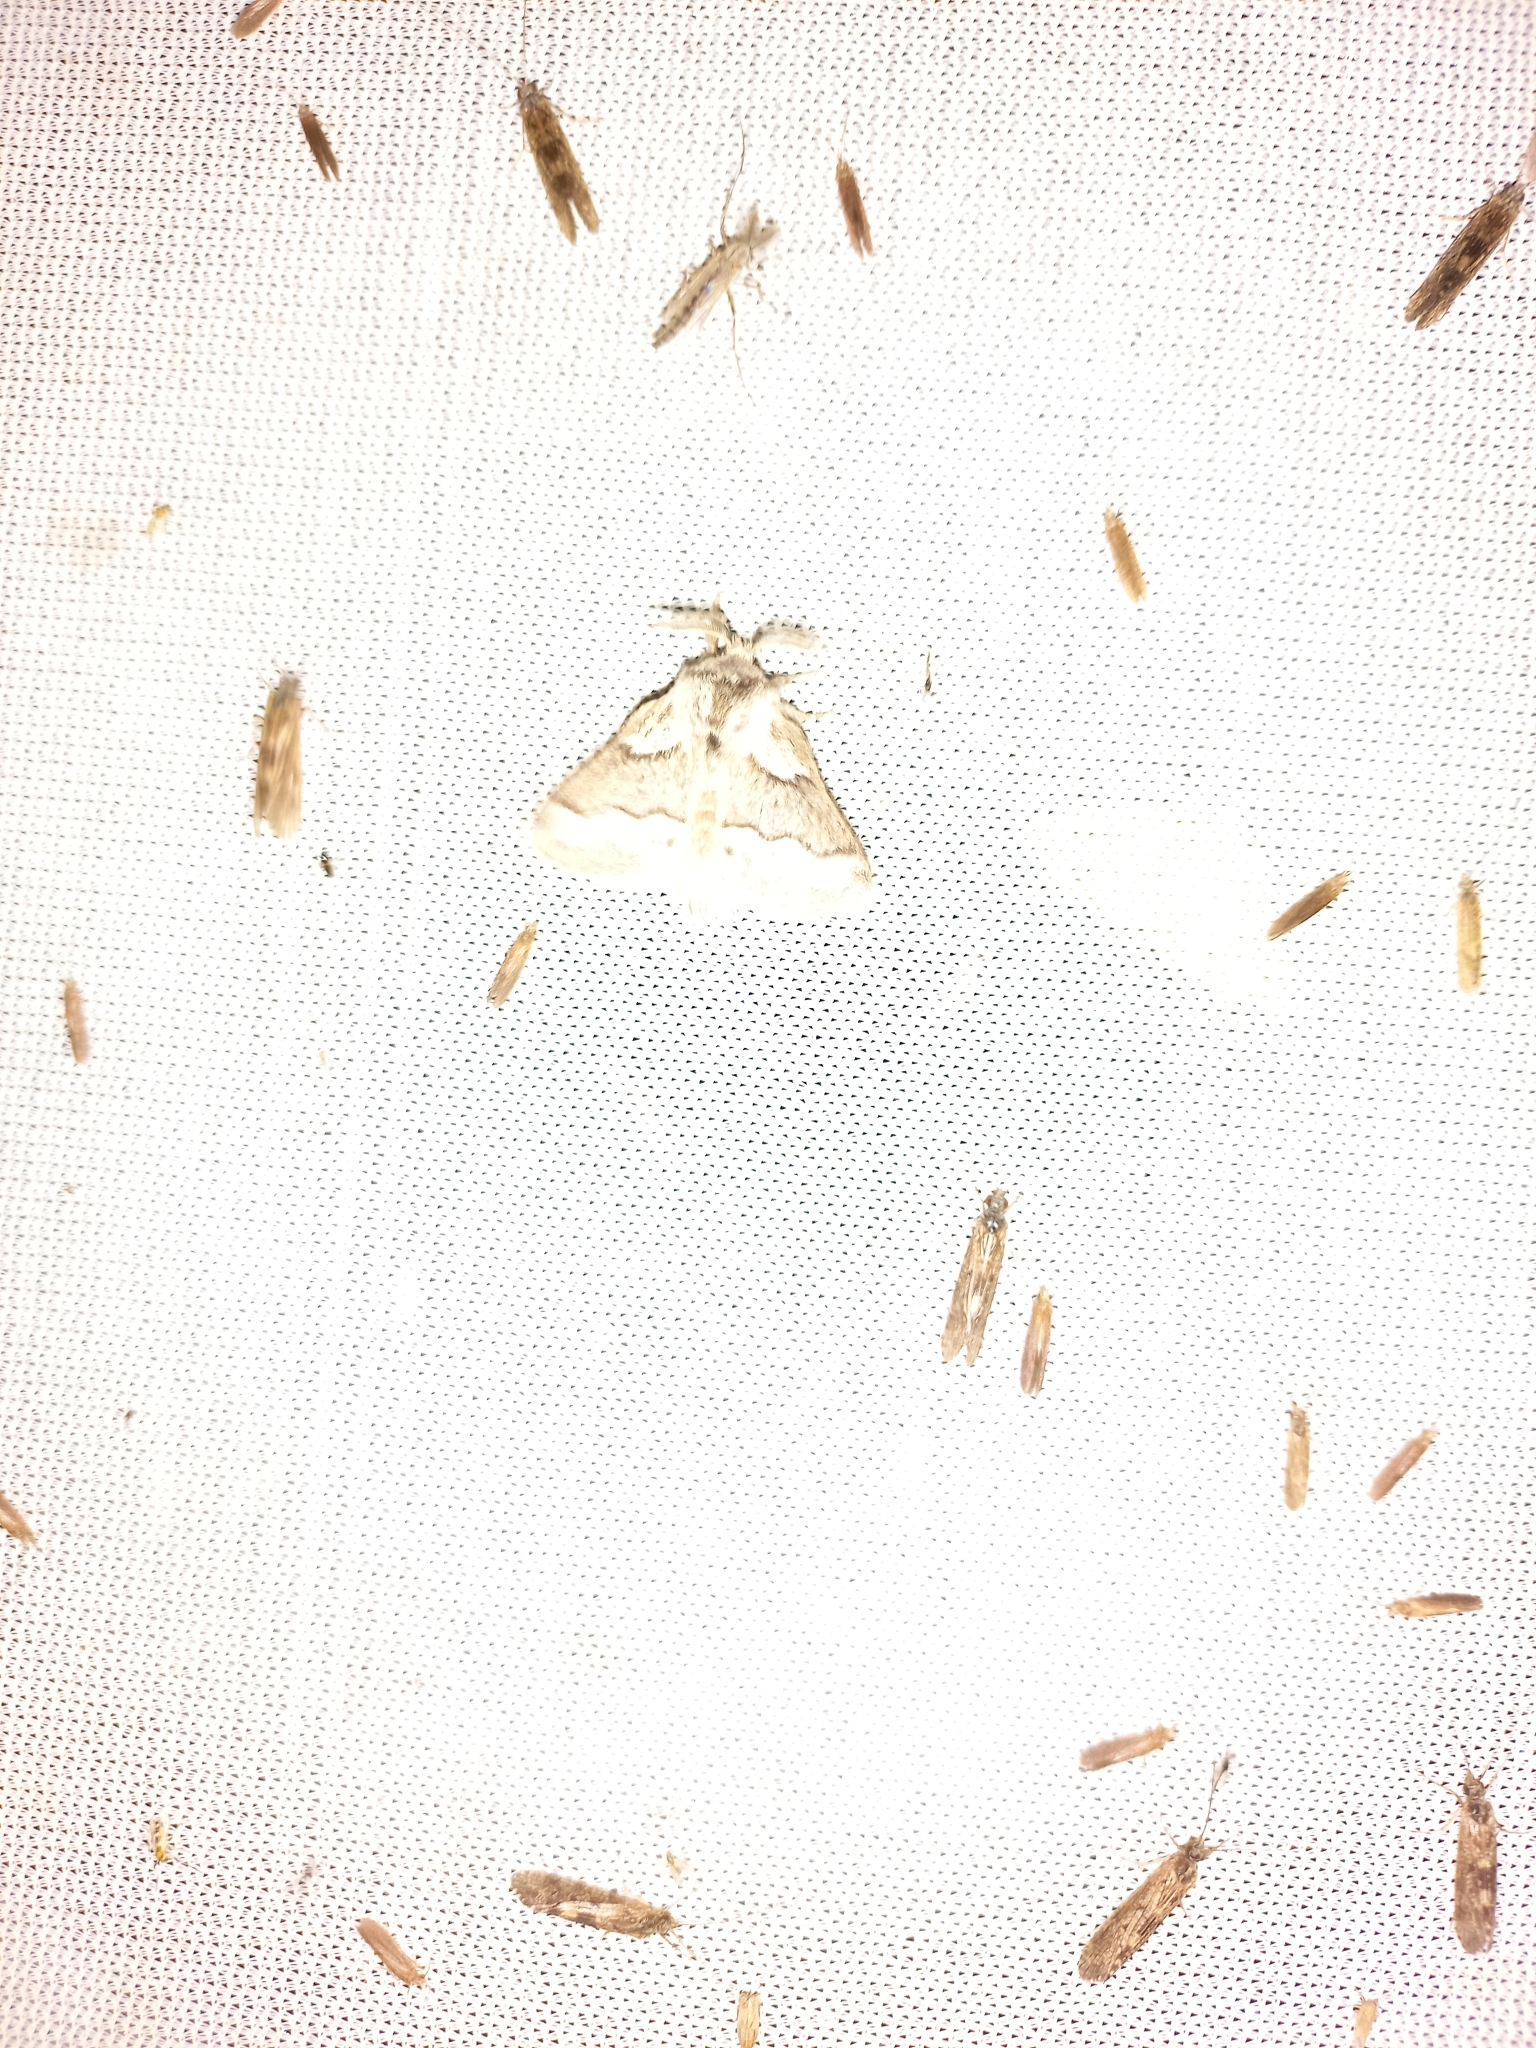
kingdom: Animalia
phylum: Arthropoda
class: Insecta
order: Lepidoptera
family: Lasiocampidae
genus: Trichiura
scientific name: Trichiura crataegi
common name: Pale eggar
